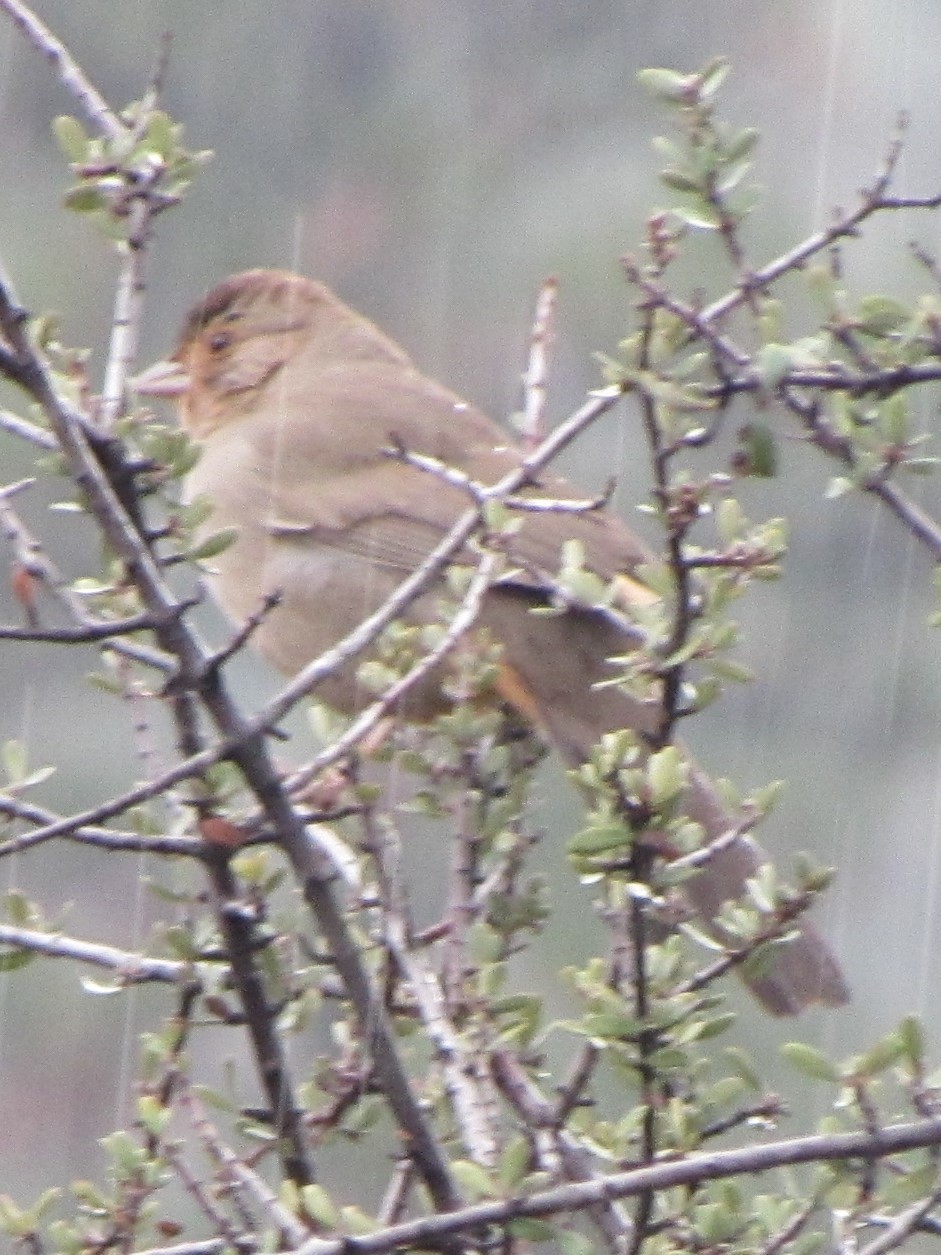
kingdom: Animalia
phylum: Chordata
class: Aves
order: Passeriformes
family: Passerellidae
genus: Melozone
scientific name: Melozone crissalis
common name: California towhee
